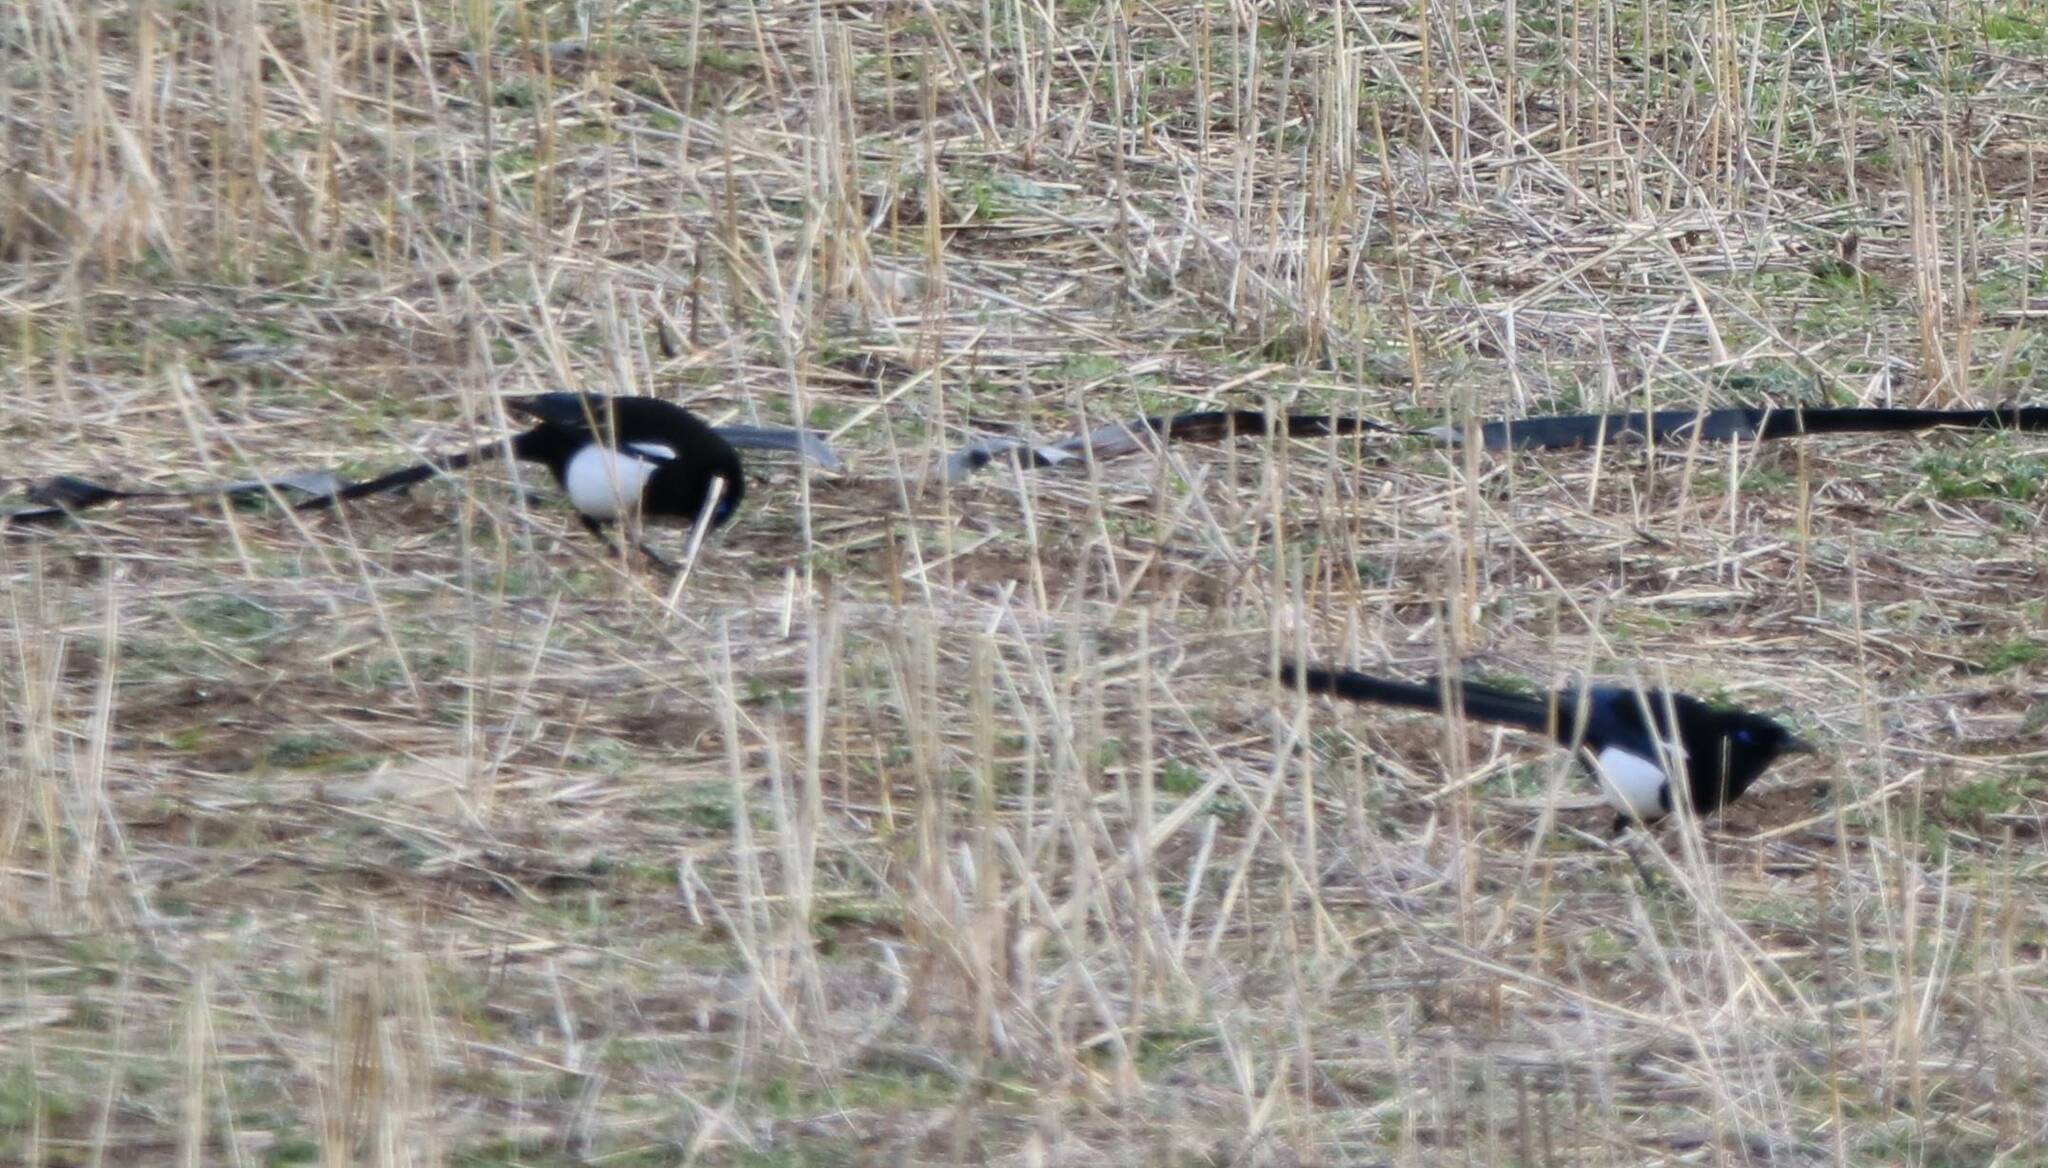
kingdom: Animalia
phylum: Chordata
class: Aves
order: Passeriformes
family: Corvidae
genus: Pica
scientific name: Pica mauritanica
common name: Maghreb magpie
